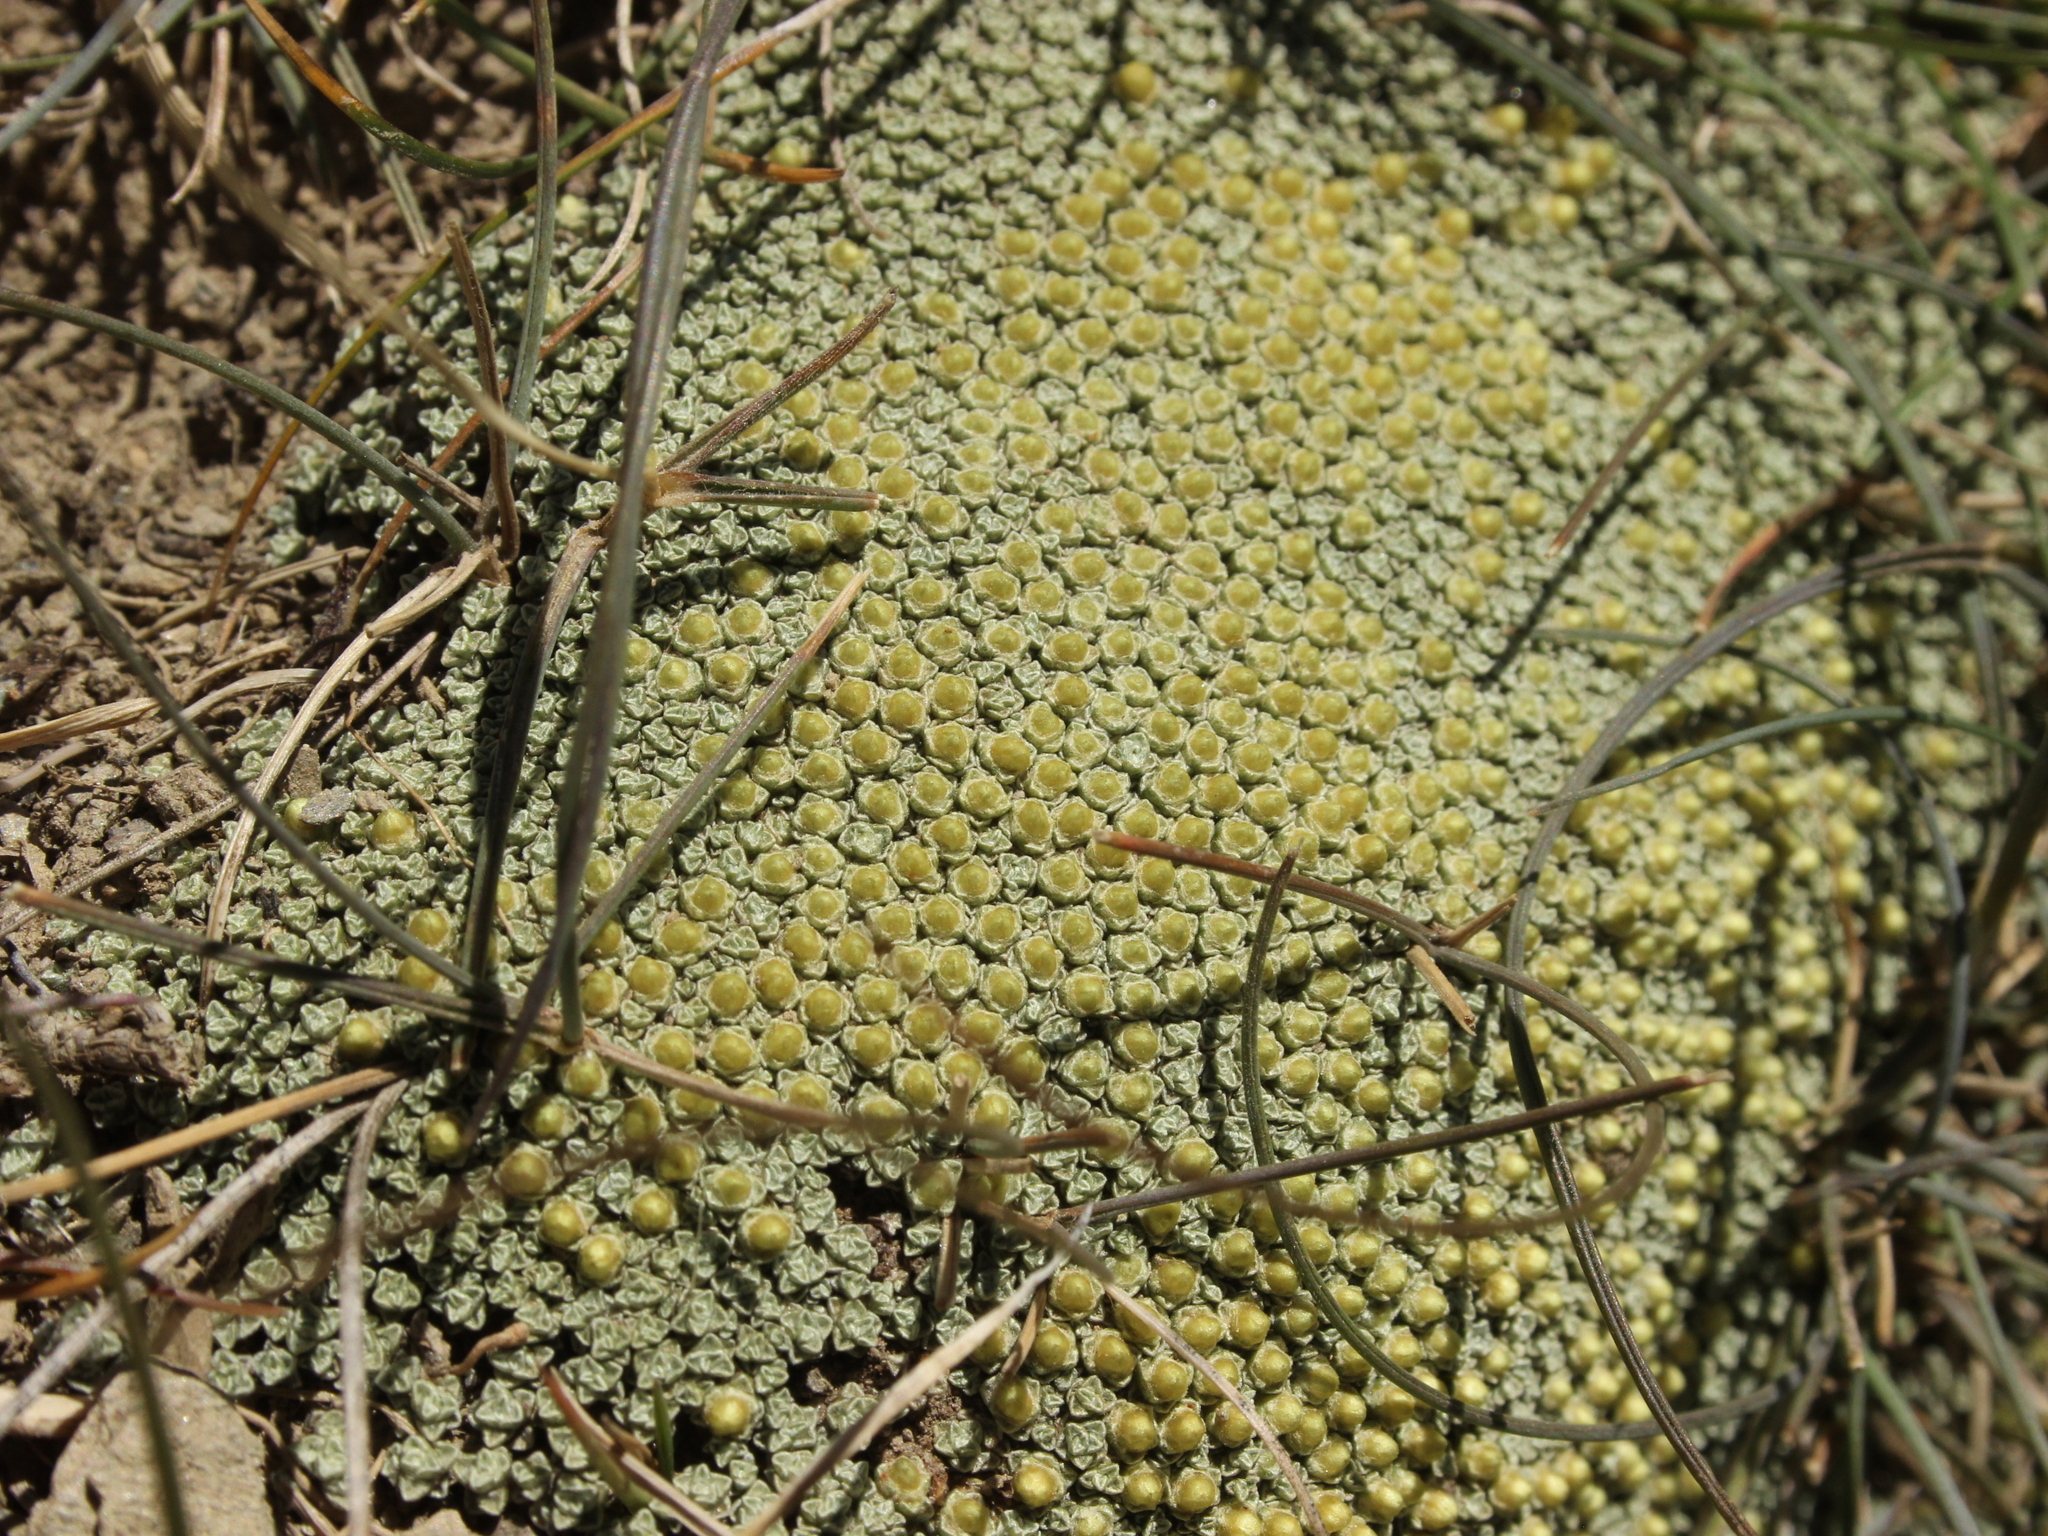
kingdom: Plantae
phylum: Tracheophyta
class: Magnoliopsida
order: Asterales
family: Asteraceae
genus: Raoulia
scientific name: Raoulia australis
